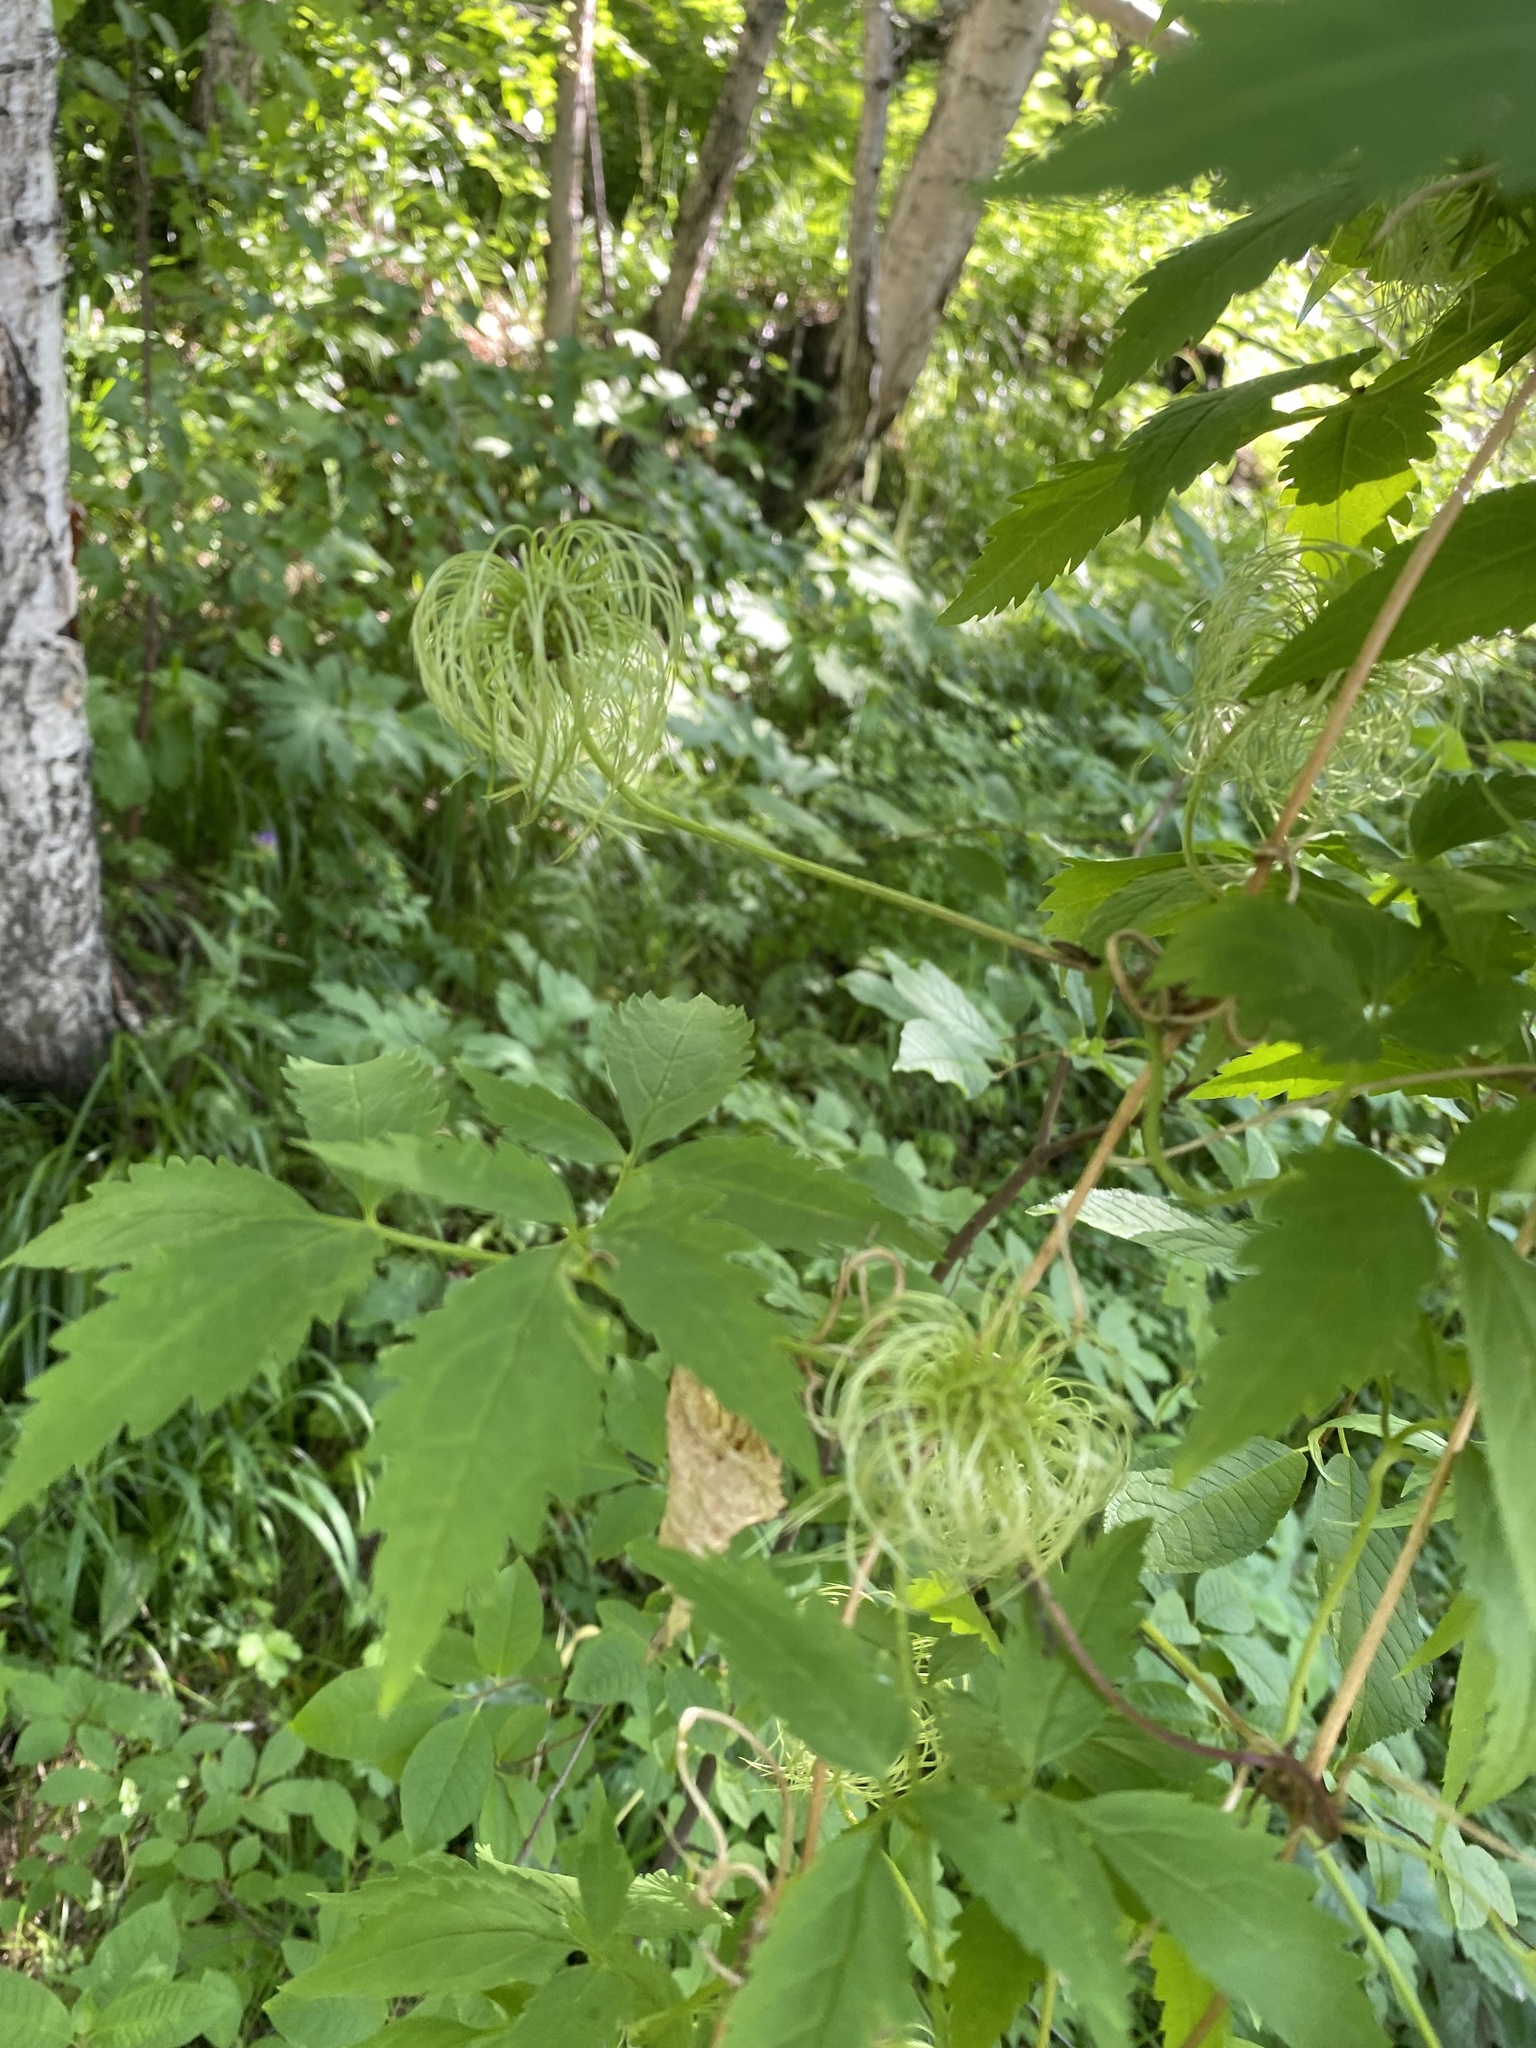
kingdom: Plantae
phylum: Tracheophyta
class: Magnoliopsida
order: Ranunculales
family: Ranunculaceae
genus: Clematis
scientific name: Clematis sibirica
